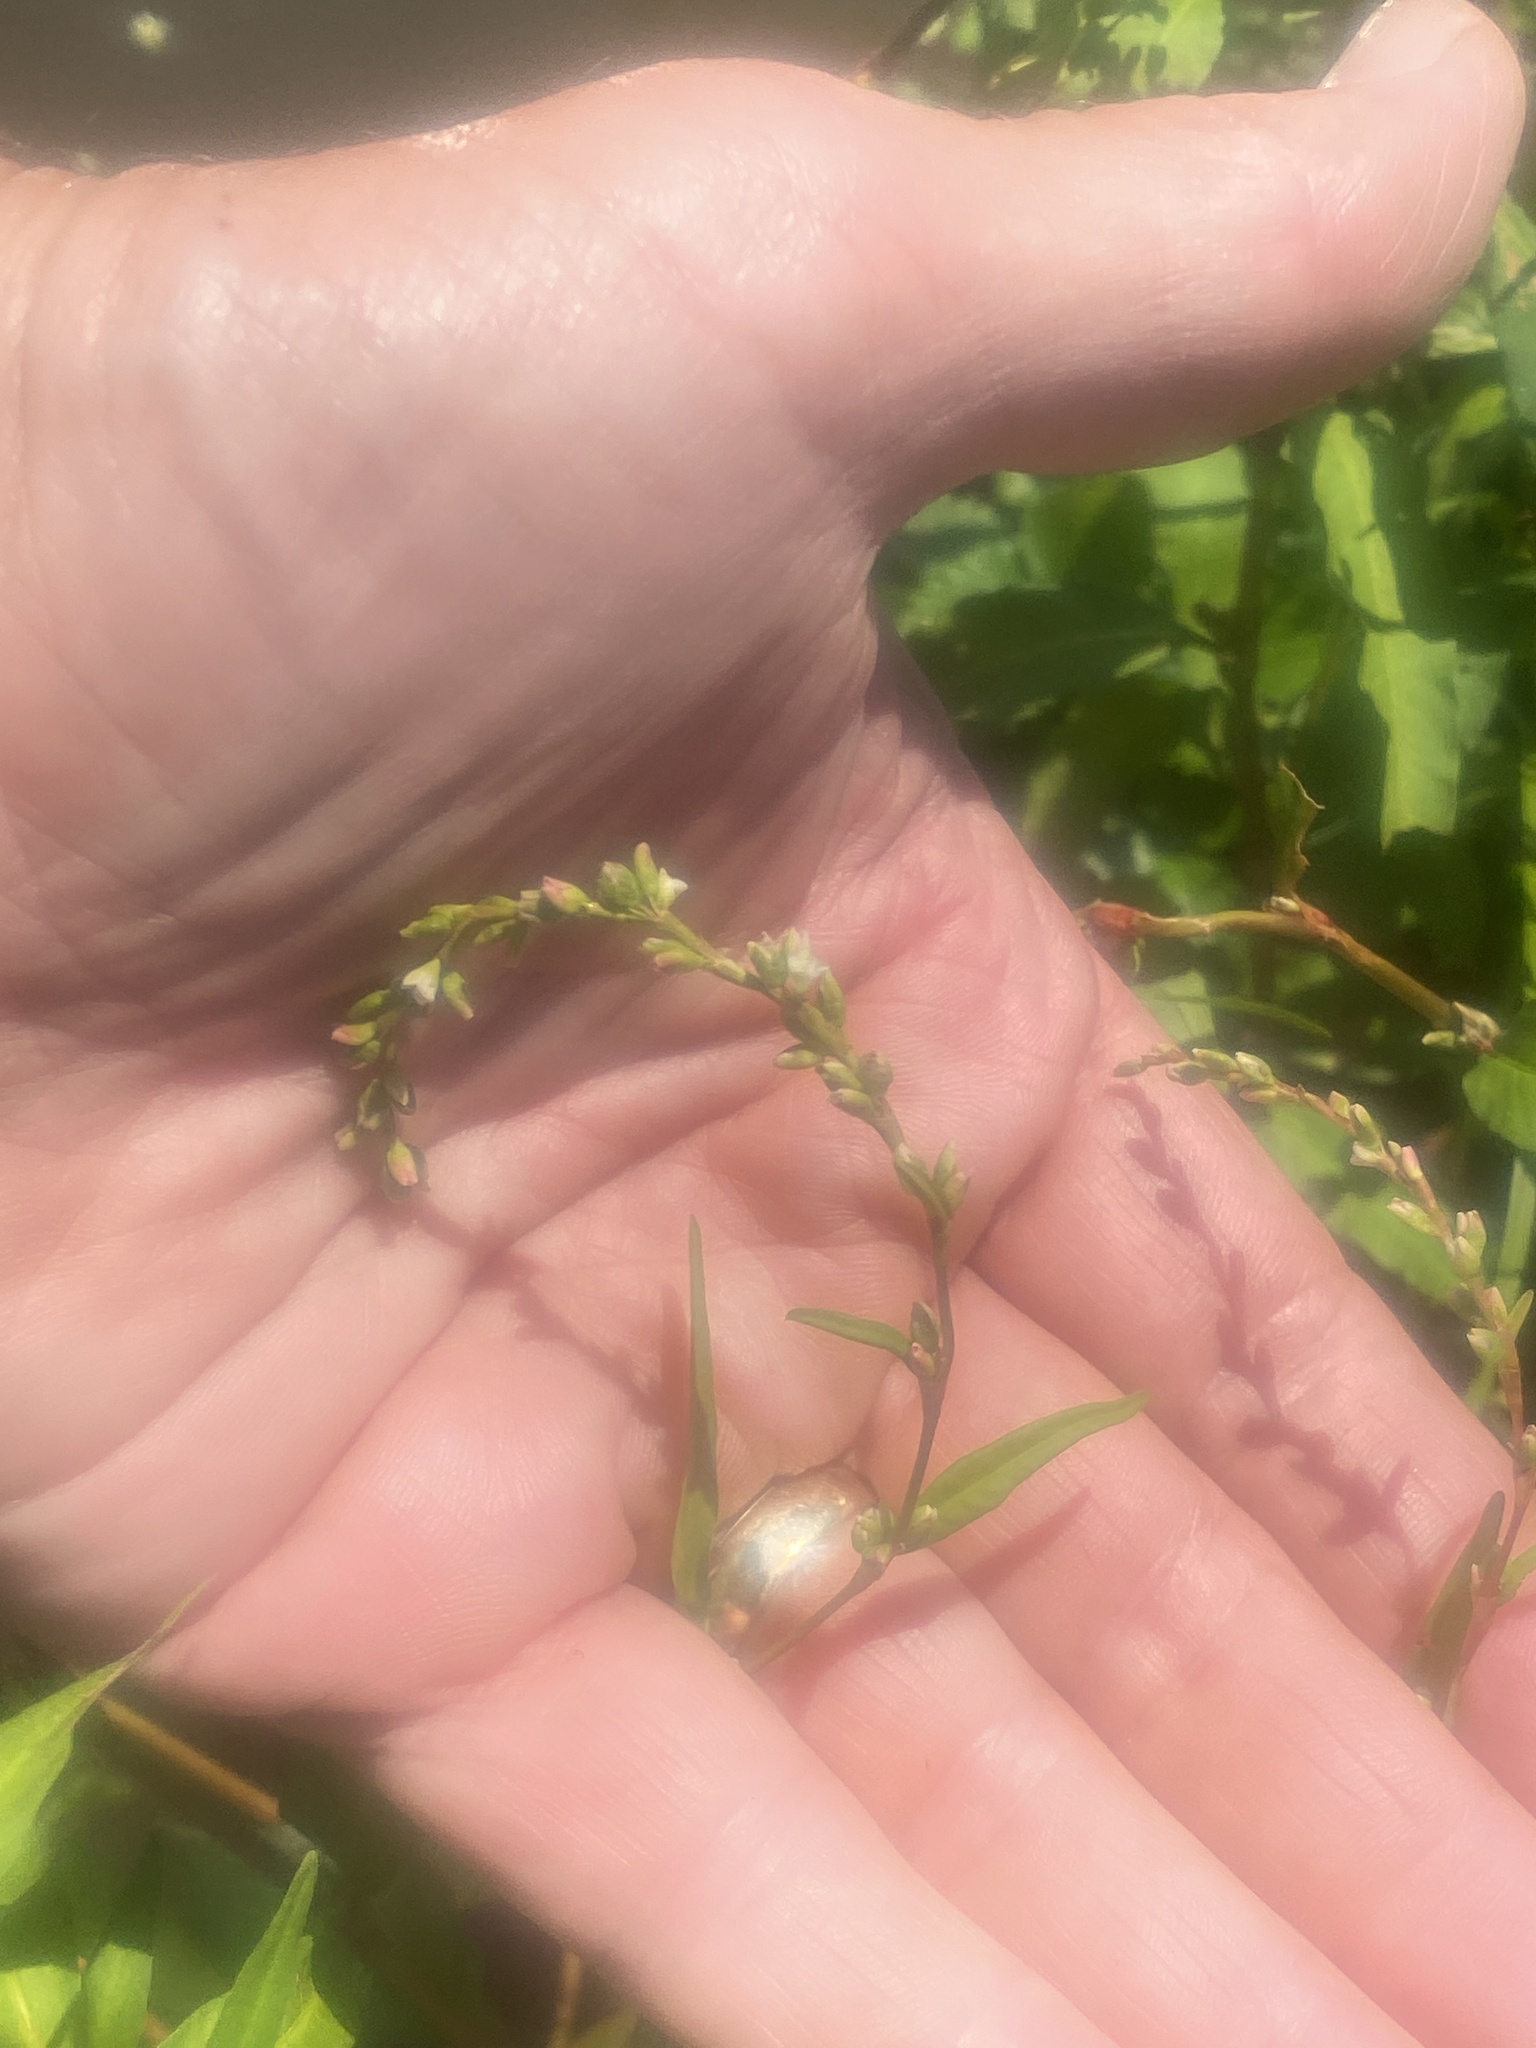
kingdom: Plantae
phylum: Tracheophyta
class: Magnoliopsida
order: Caryophyllales
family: Polygonaceae
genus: Persicaria
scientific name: Persicaria hydropiper
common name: Water-pepper
